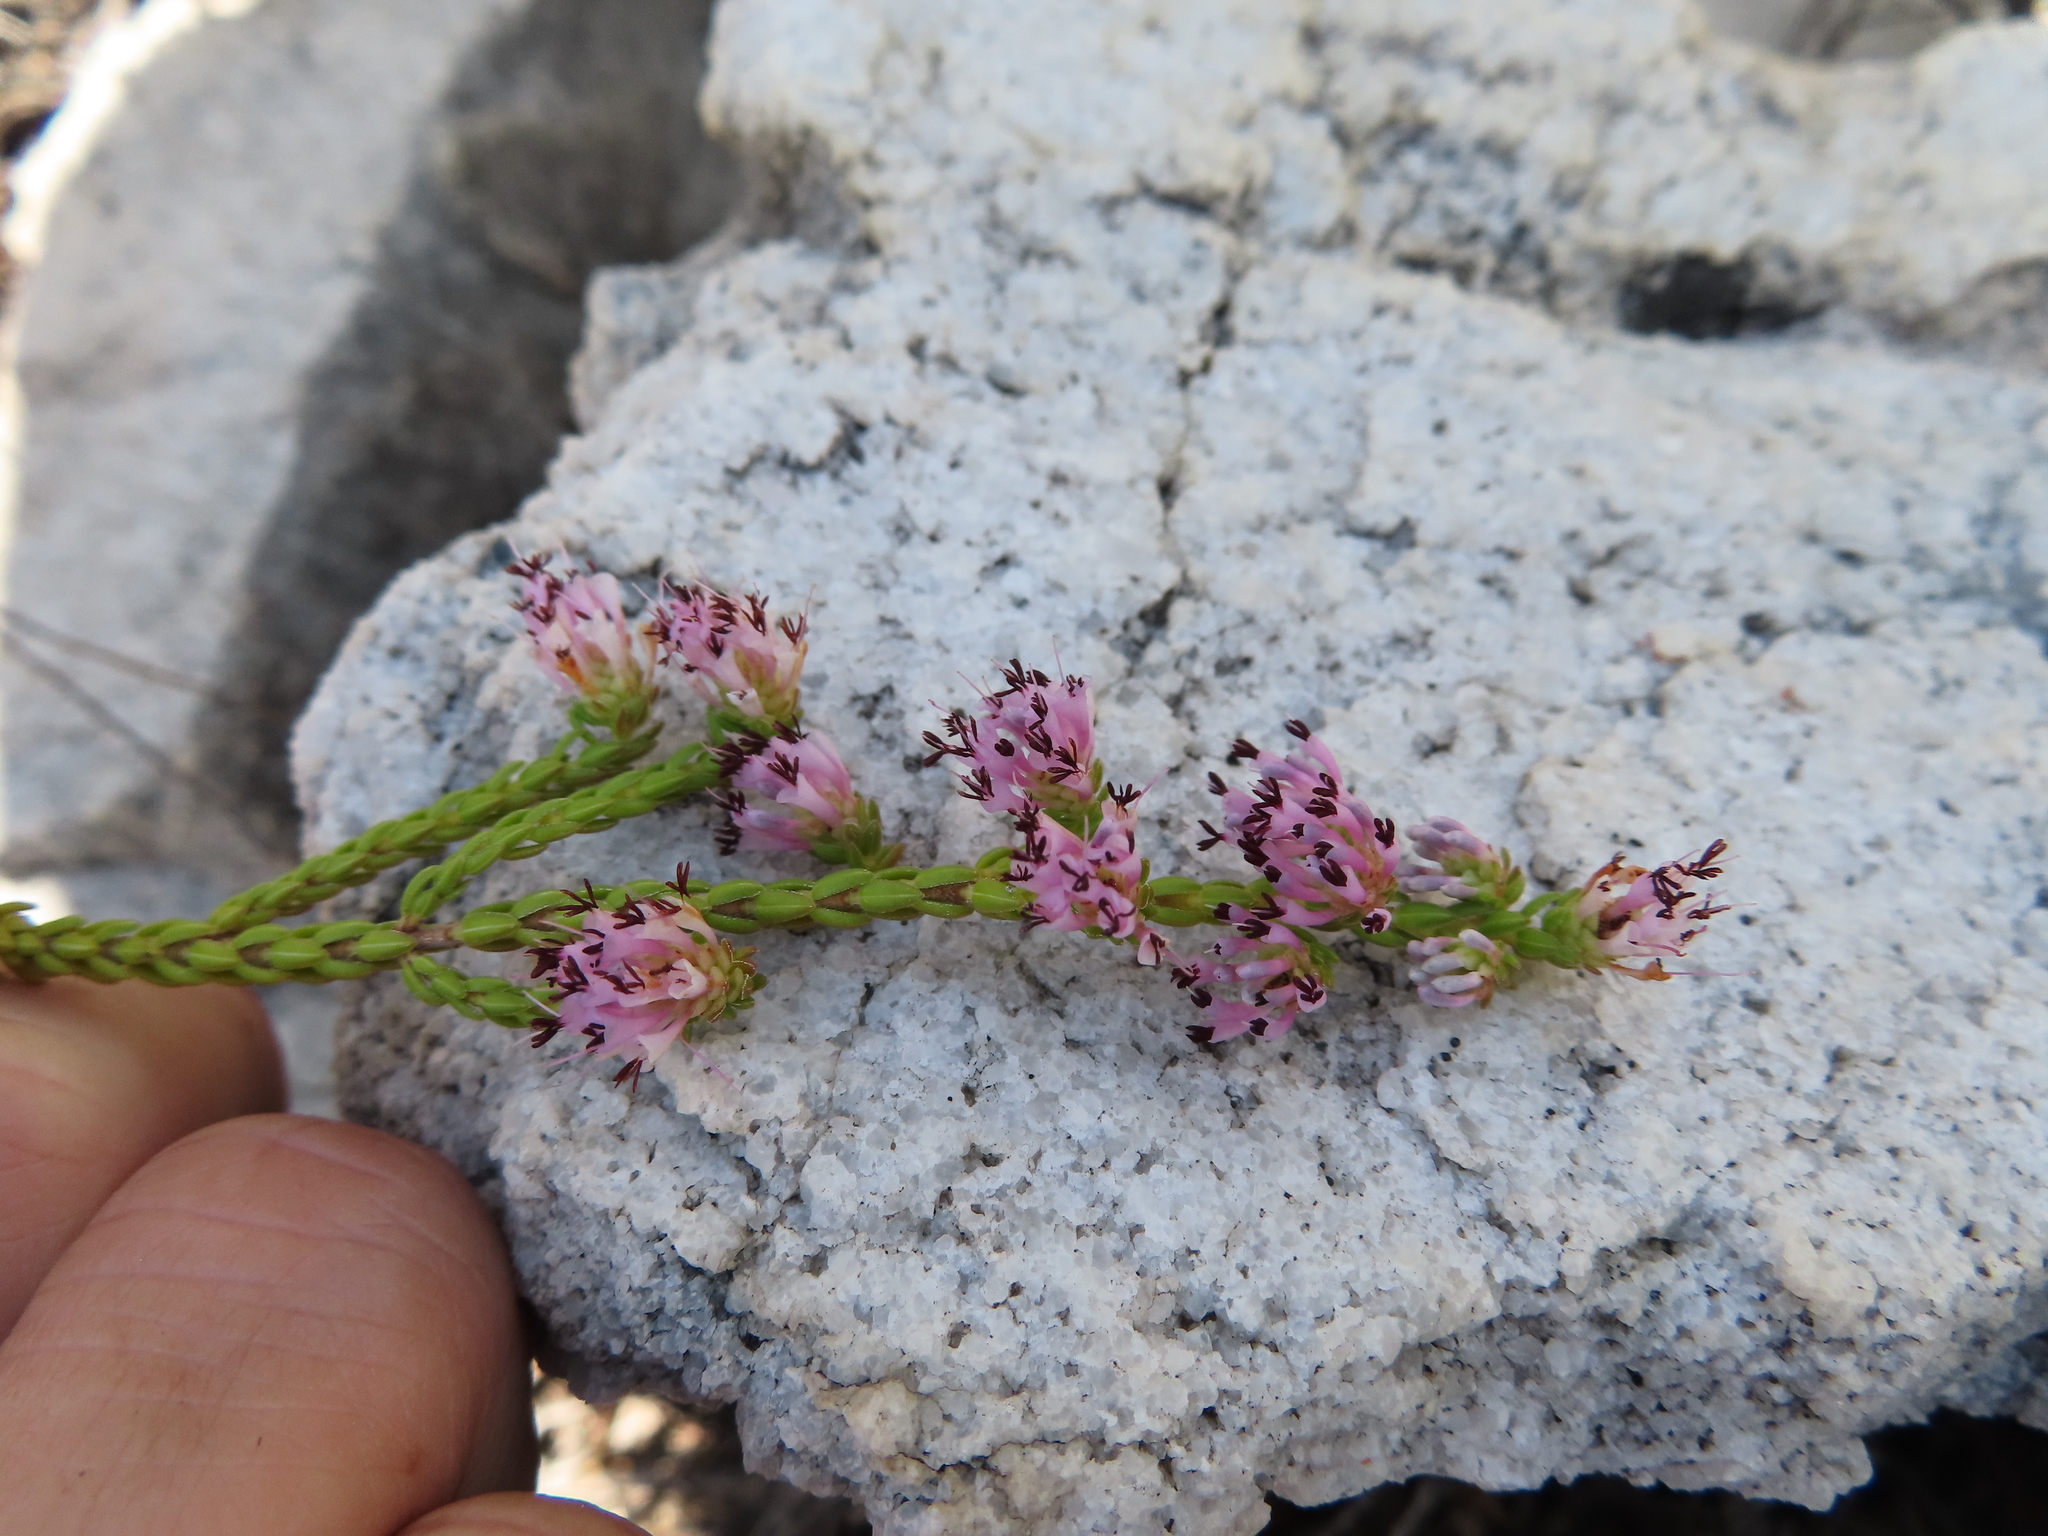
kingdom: Plantae
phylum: Tracheophyta
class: Magnoliopsida
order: Ericales
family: Ericaceae
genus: Erica
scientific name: Erica labialis
